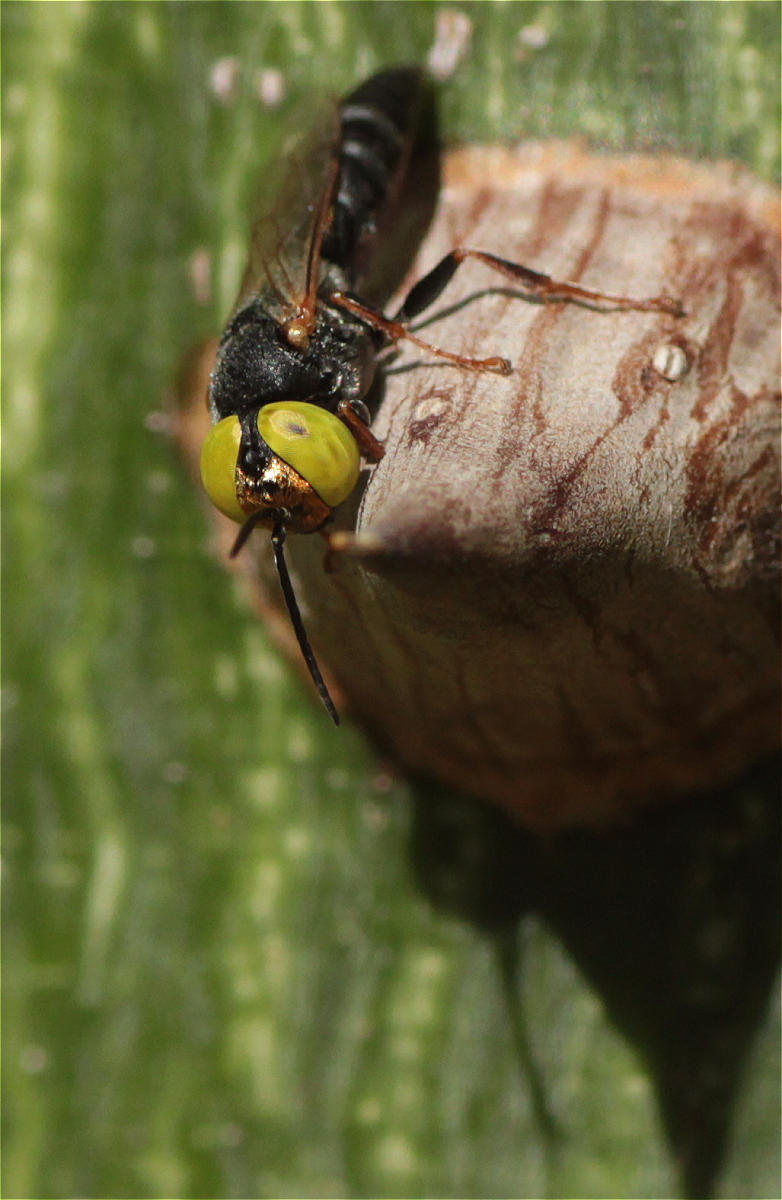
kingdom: Animalia
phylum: Arthropoda
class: Insecta
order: Hymenoptera
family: Crabronidae
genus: Tachysphex
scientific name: Tachysphex
